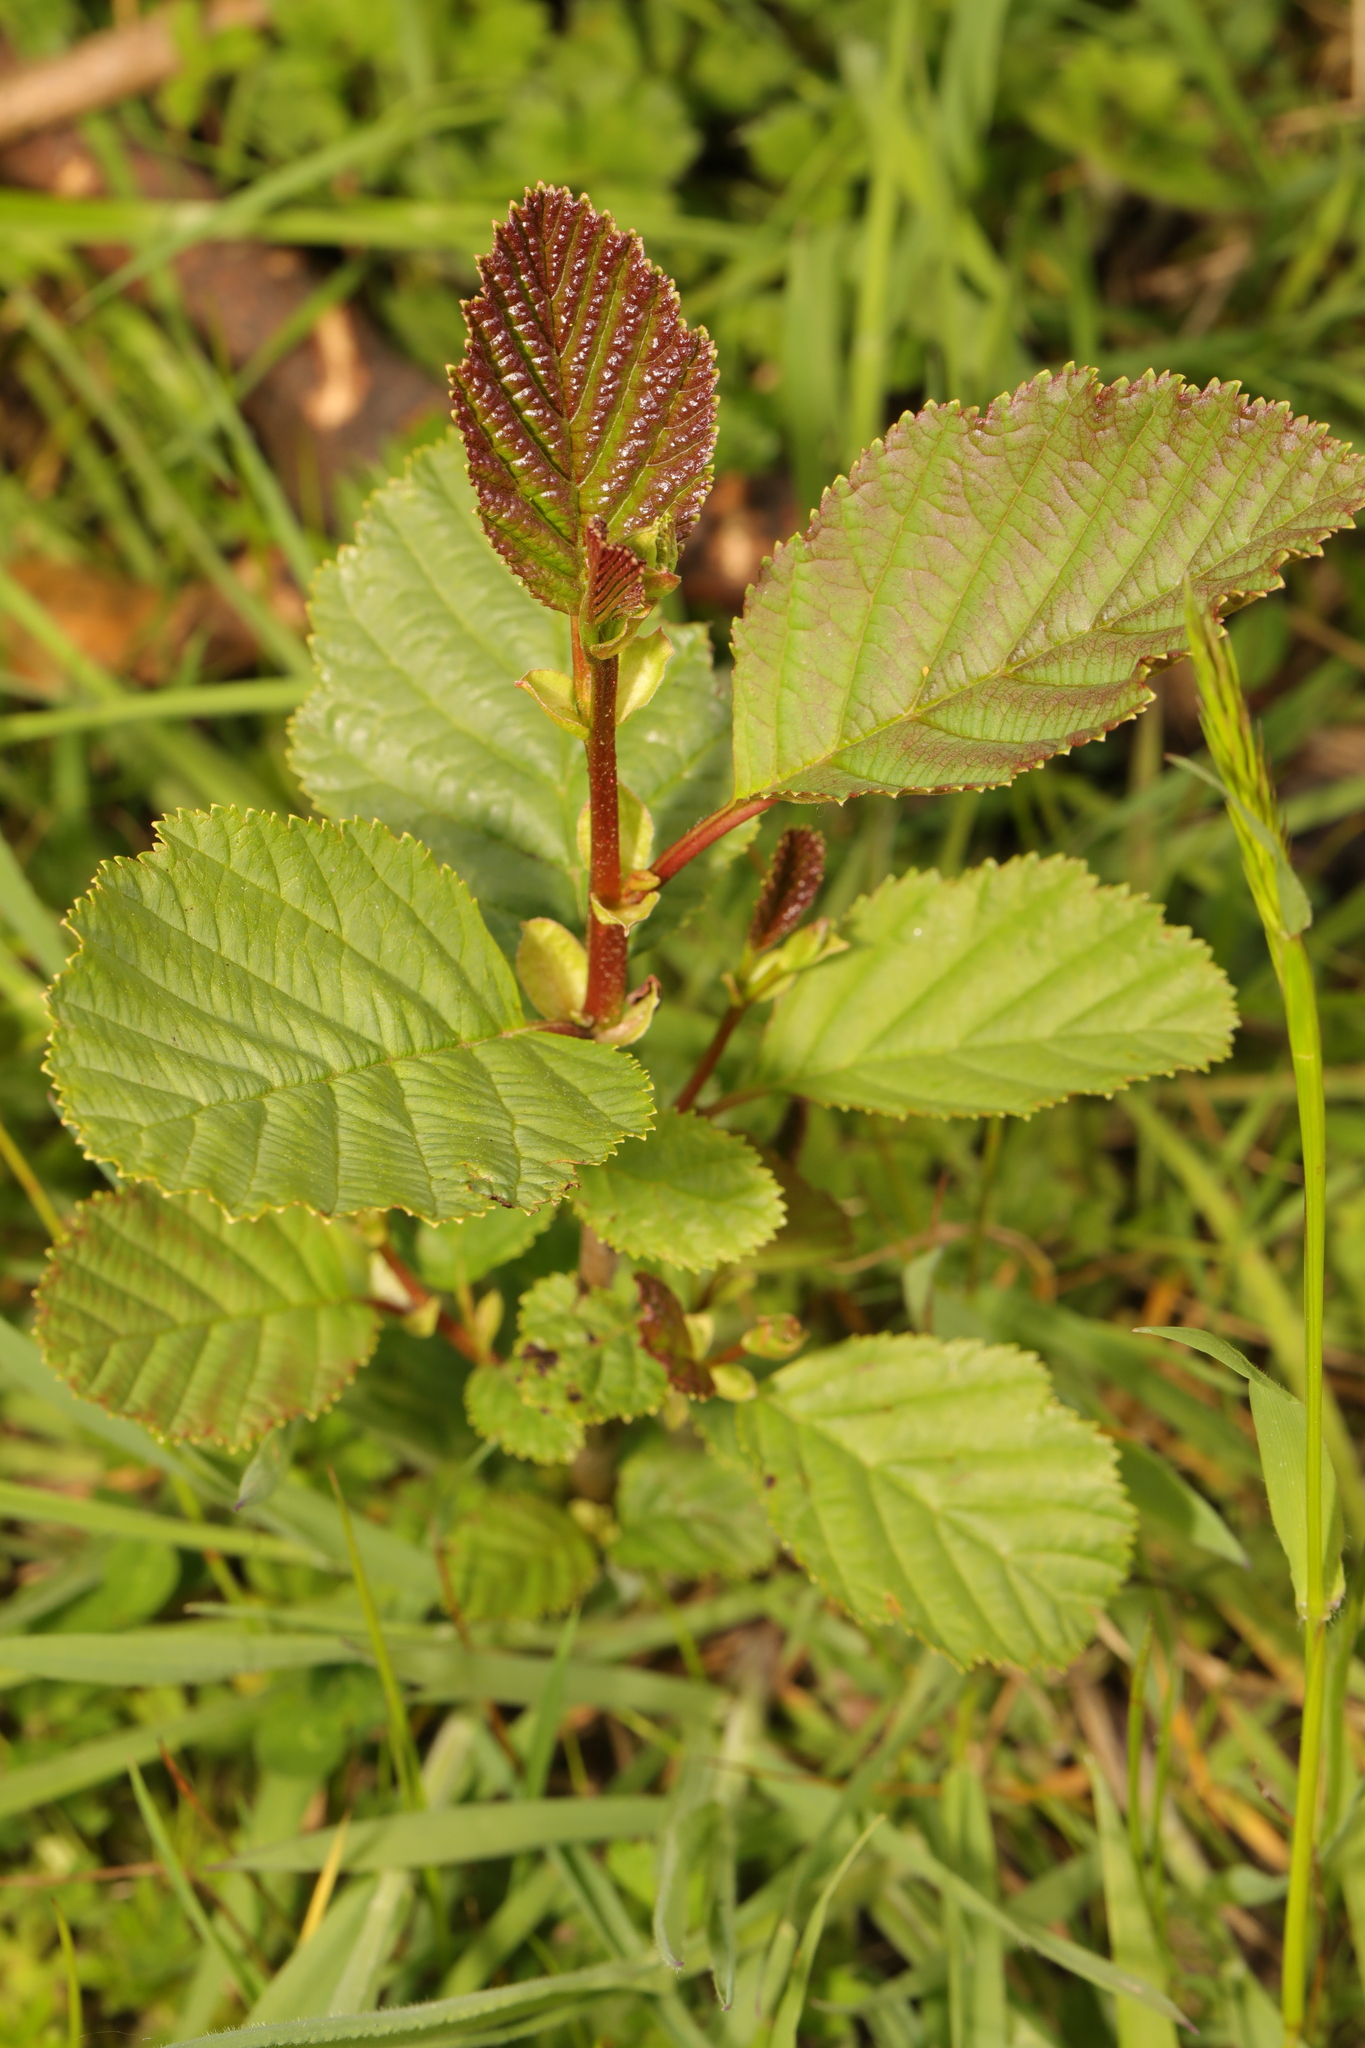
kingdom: Plantae
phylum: Tracheophyta
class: Magnoliopsida
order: Fagales
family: Betulaceae
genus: Alnus
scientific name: Alnus glutinosa
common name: Black alder
